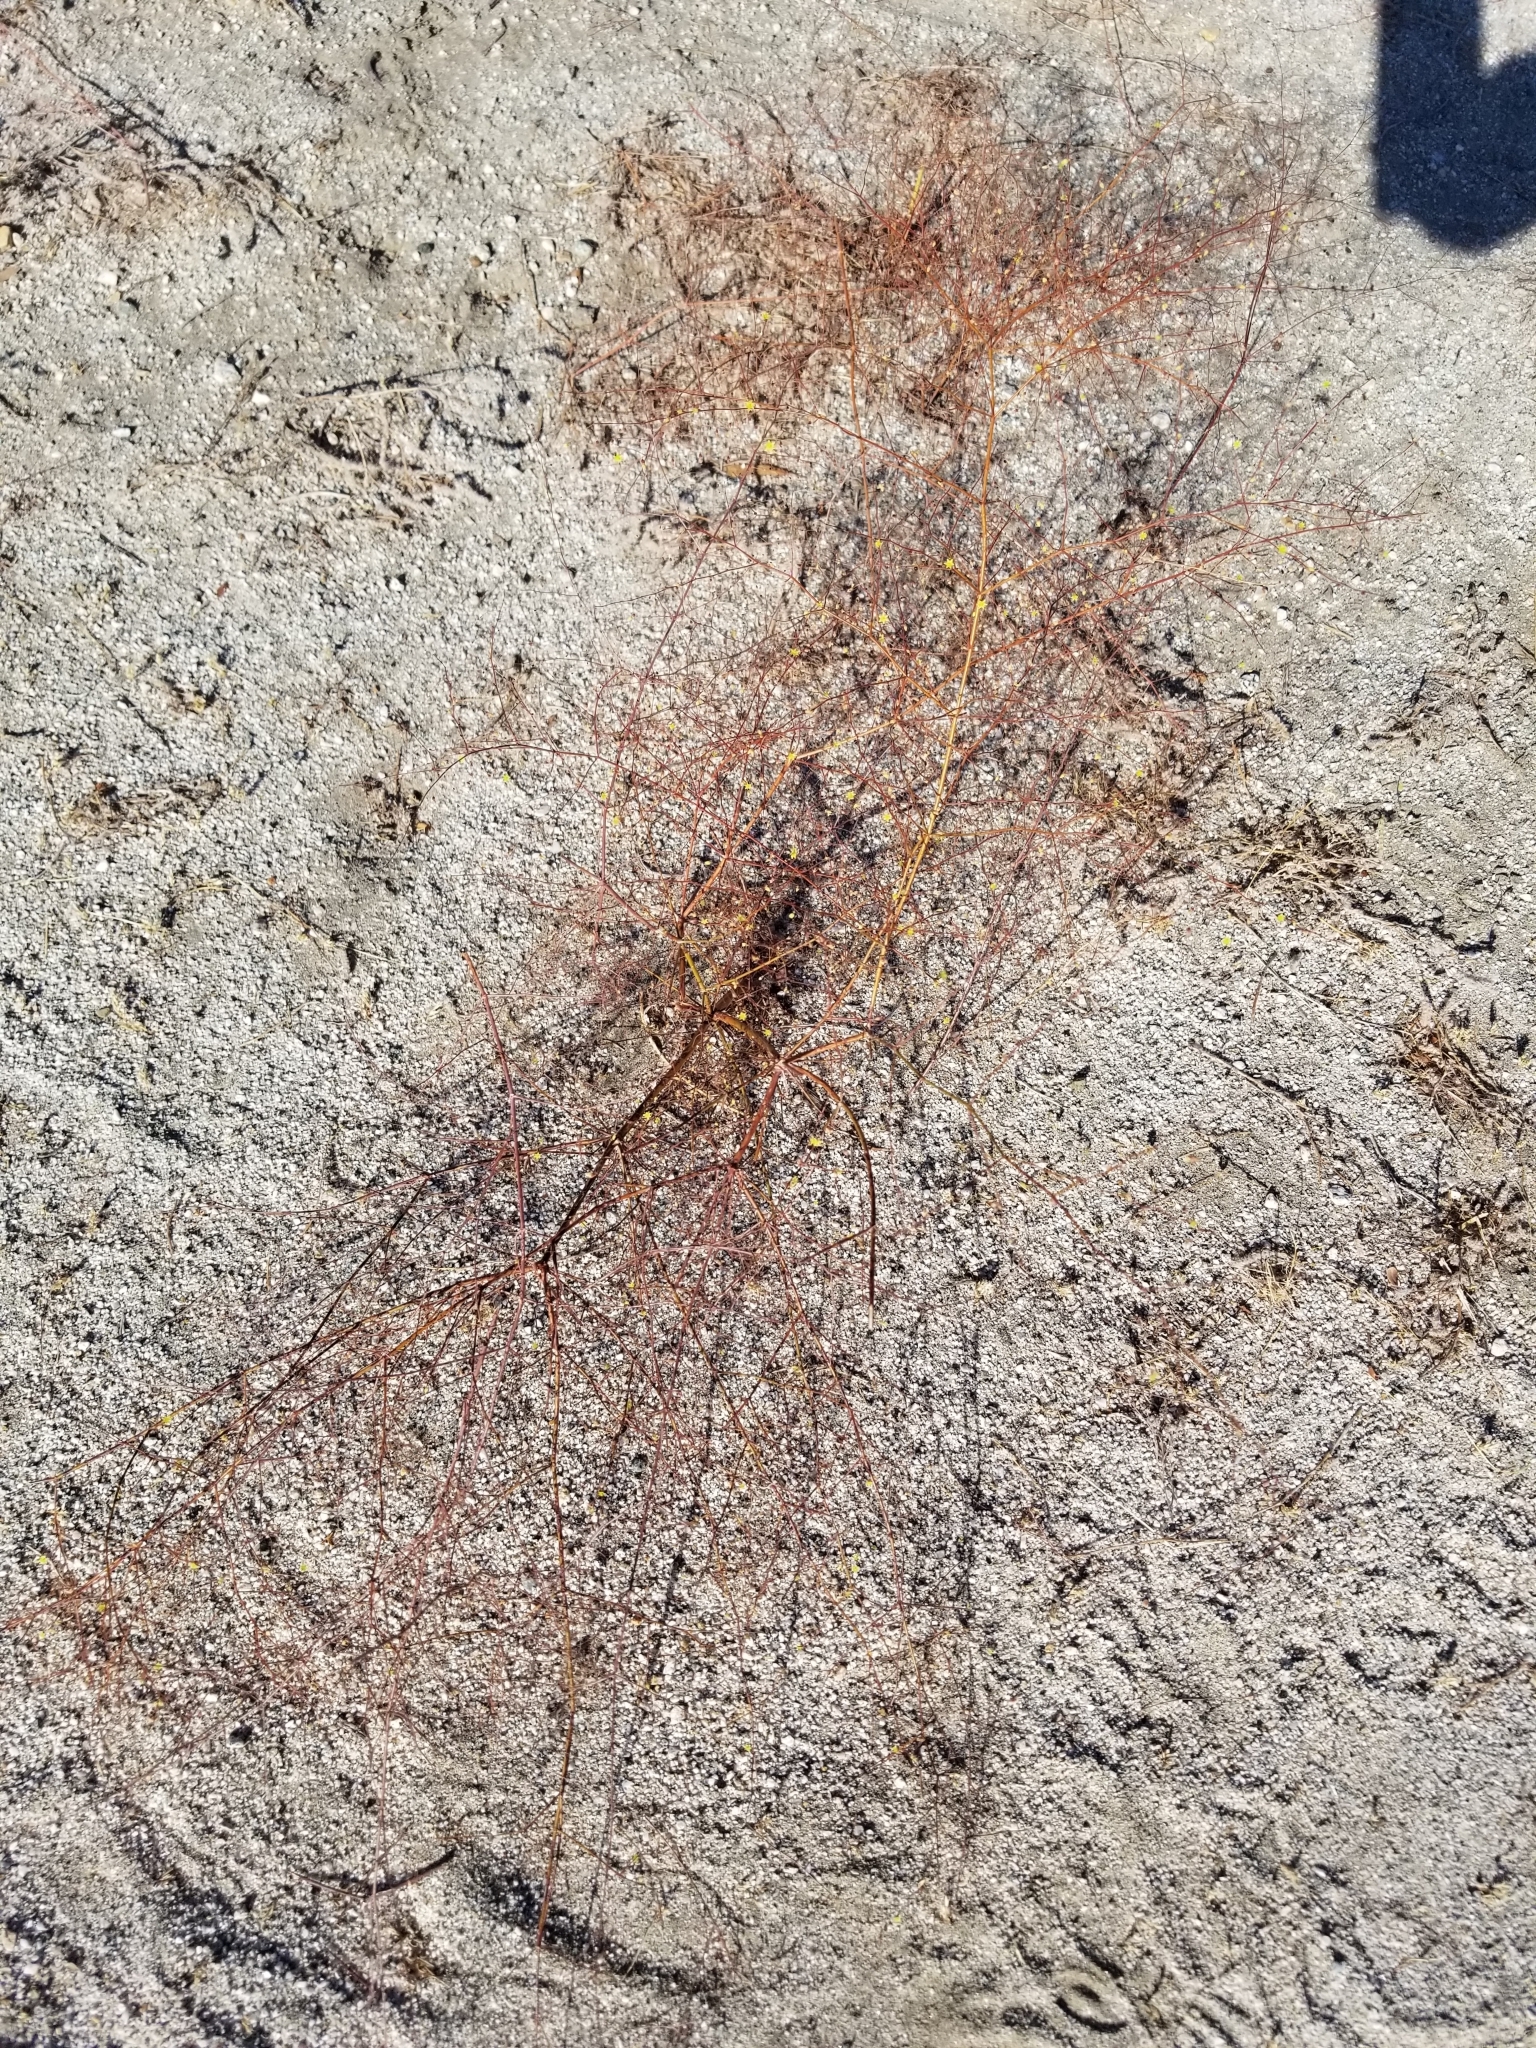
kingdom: Plantae
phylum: Tracheophyta
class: Magnoliopsida
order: Caryophyllales
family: Polygonaceae
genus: Eriogonum
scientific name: Eriogonum inflatum
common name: Desert trumpet
